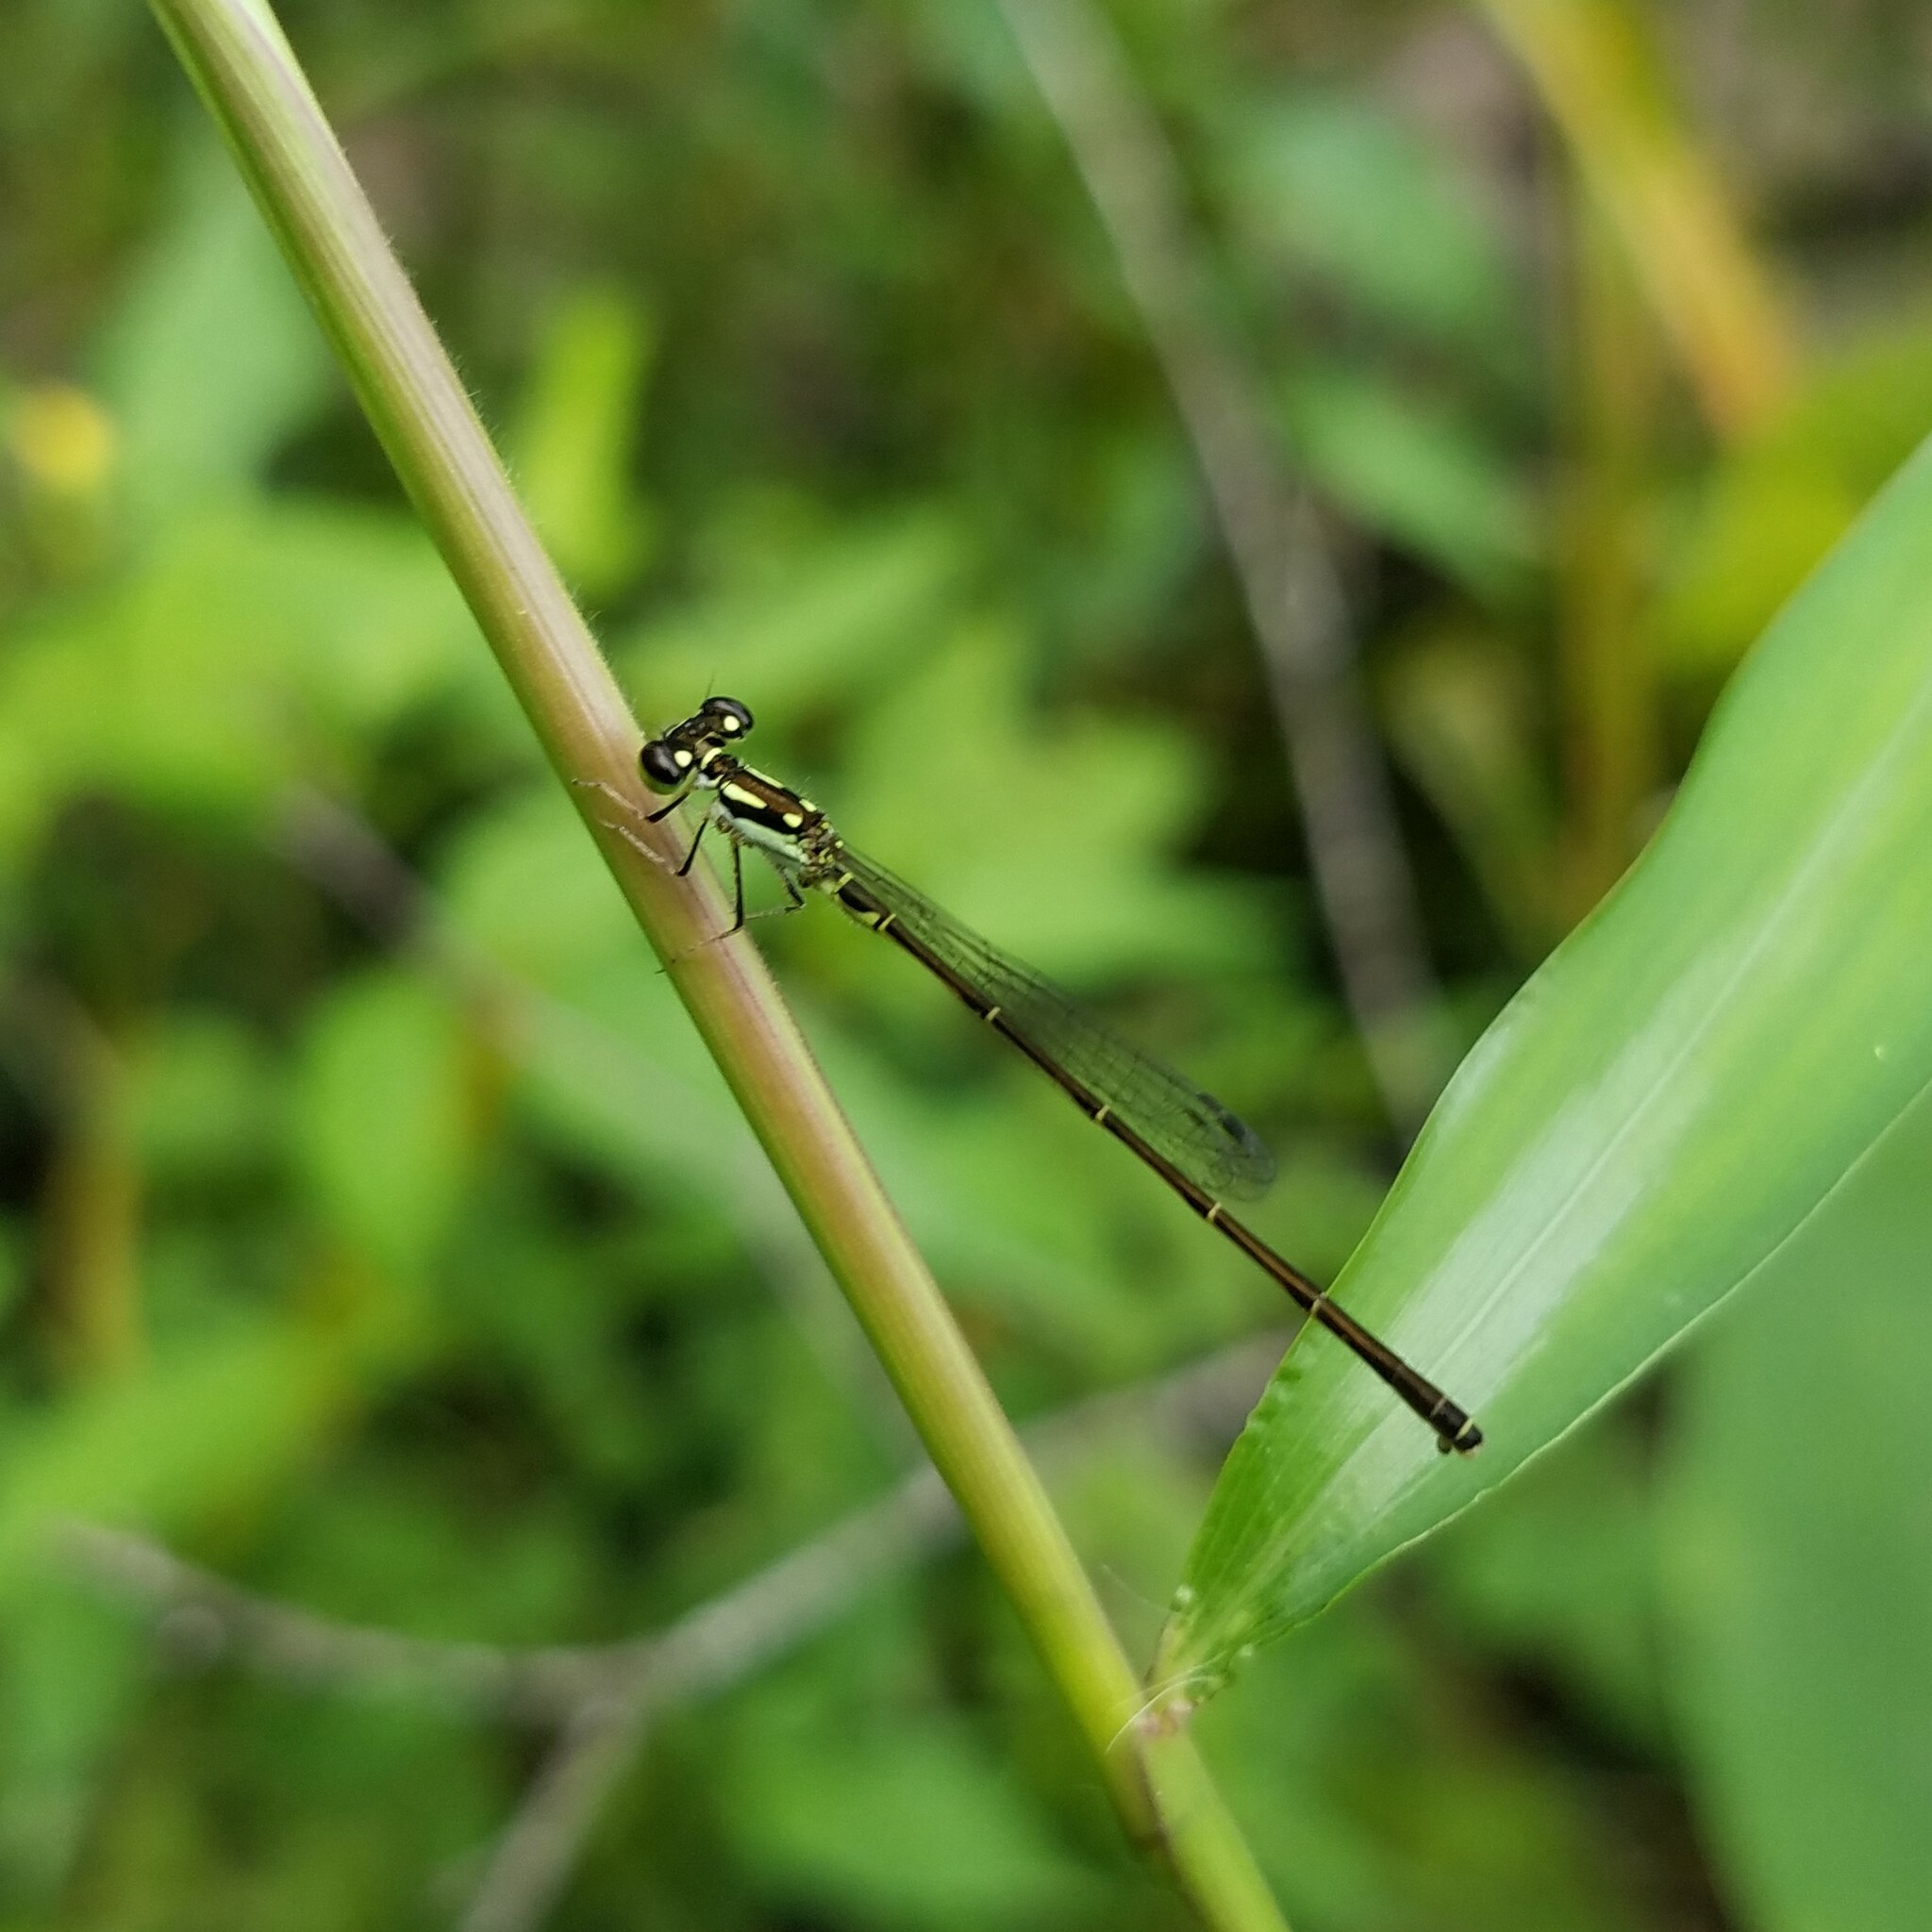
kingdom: Animalia
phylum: Arthropoda
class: Insecta
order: Odonata
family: Coenagrionidae
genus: Ischnura
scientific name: Ischnura posita
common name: Fragile forktail
